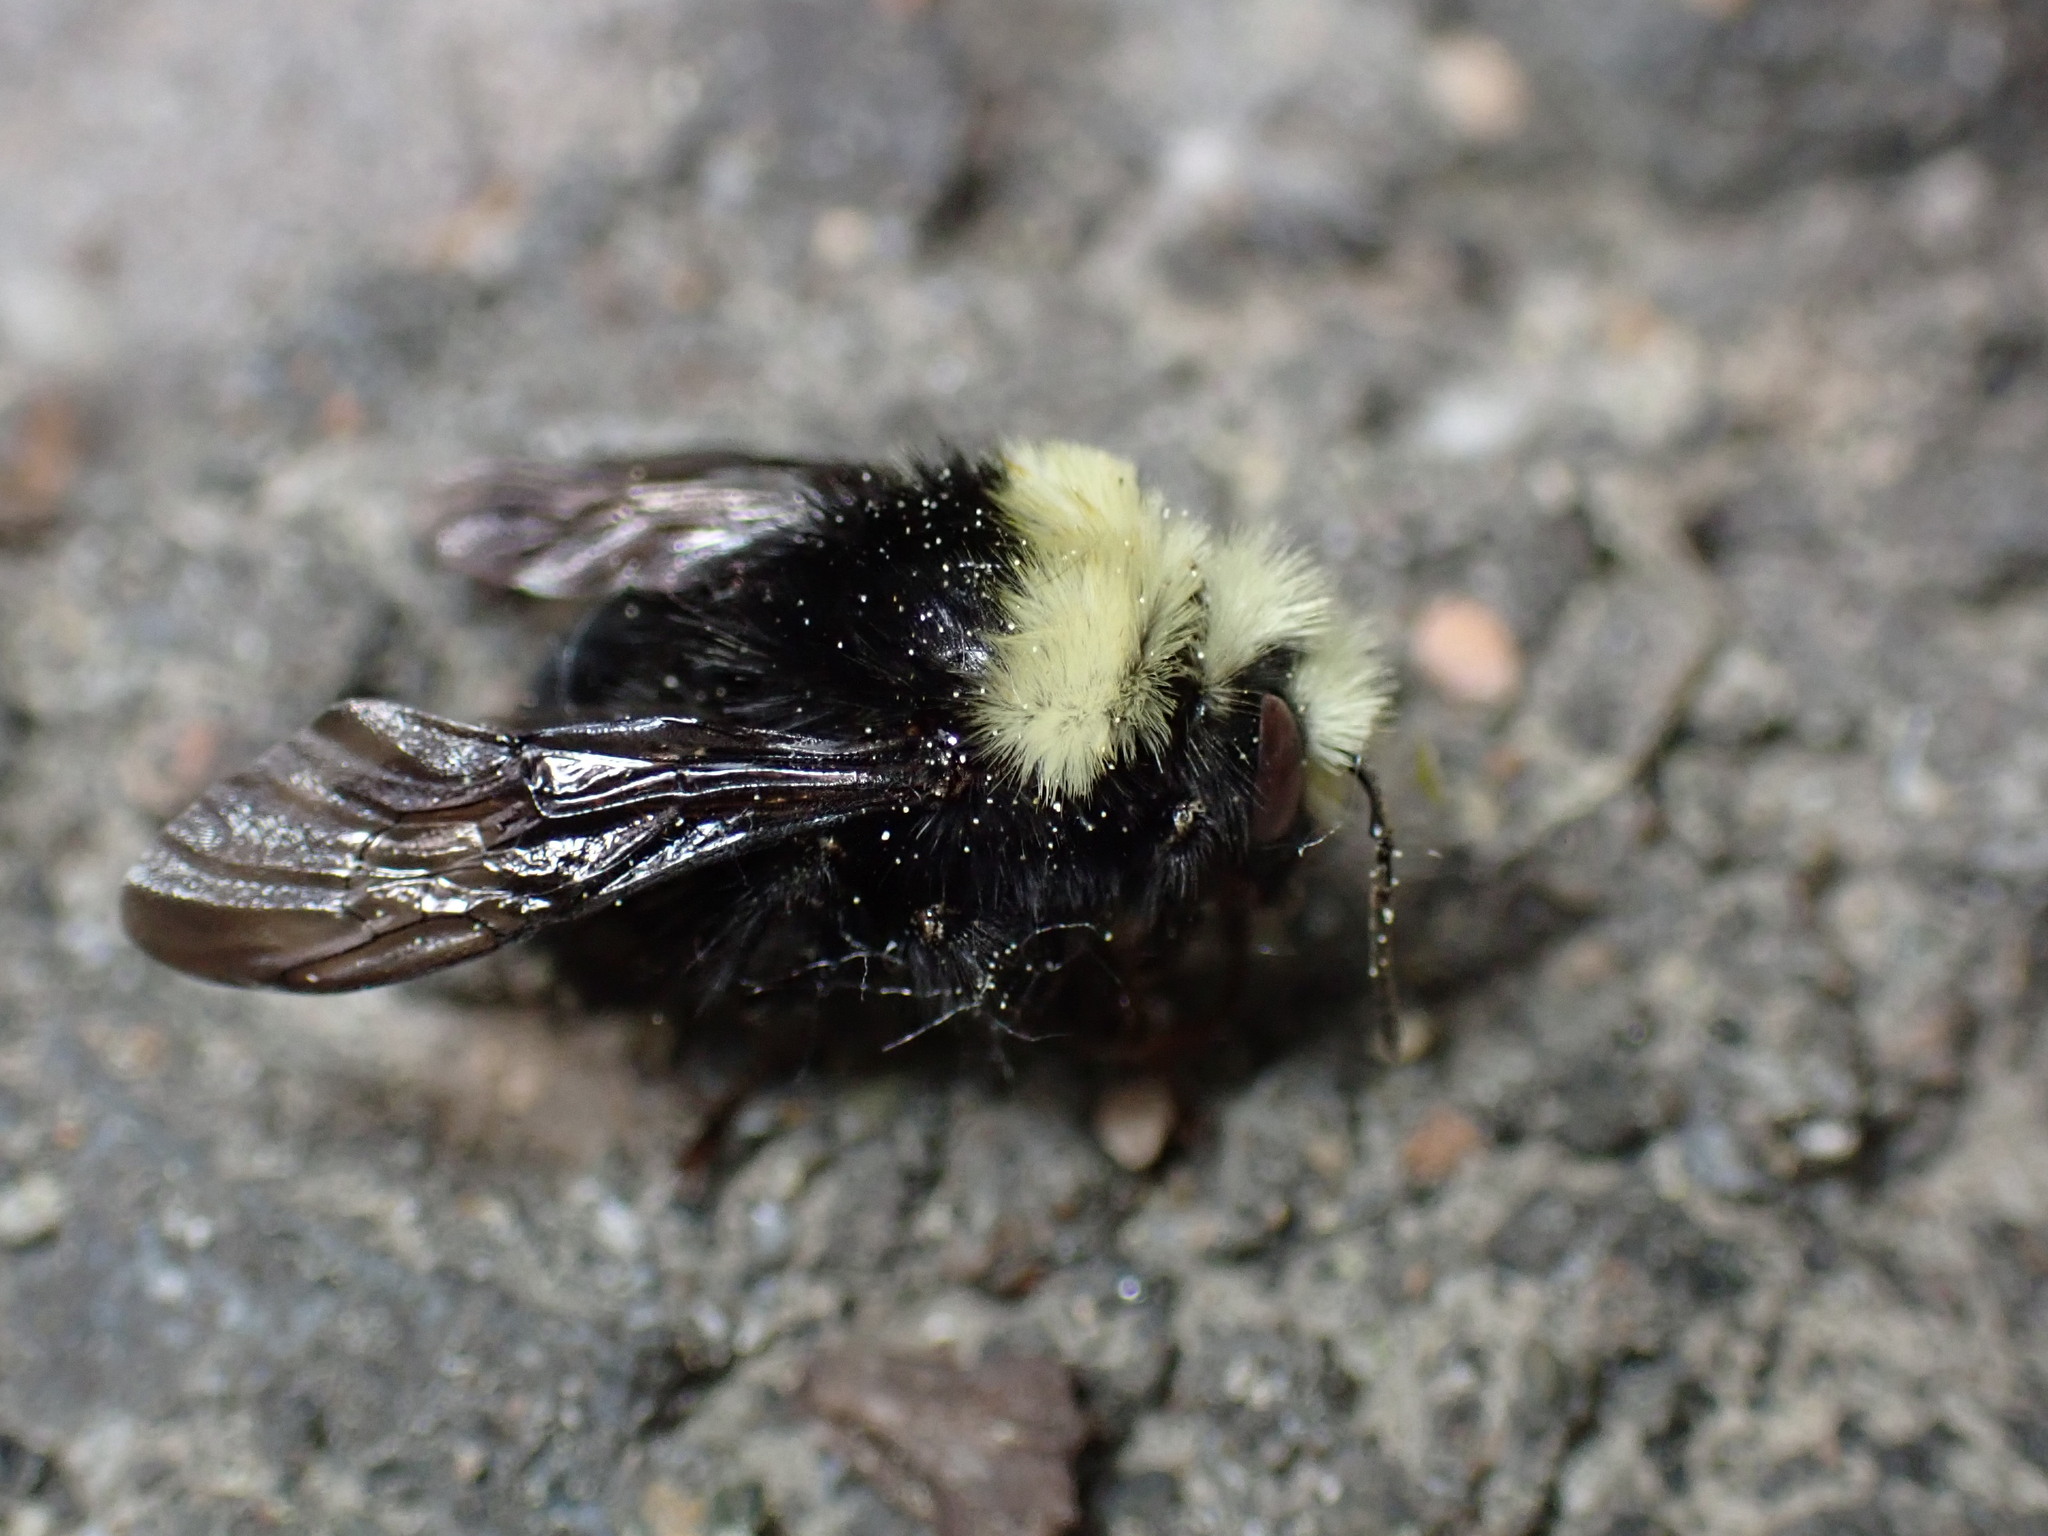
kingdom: Animalia
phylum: Arthropoda
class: Insecta
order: Hymenoptera
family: Apidae
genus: Bombus
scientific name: Bombus vosnesenskii
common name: Vosnesensky bumble bee
